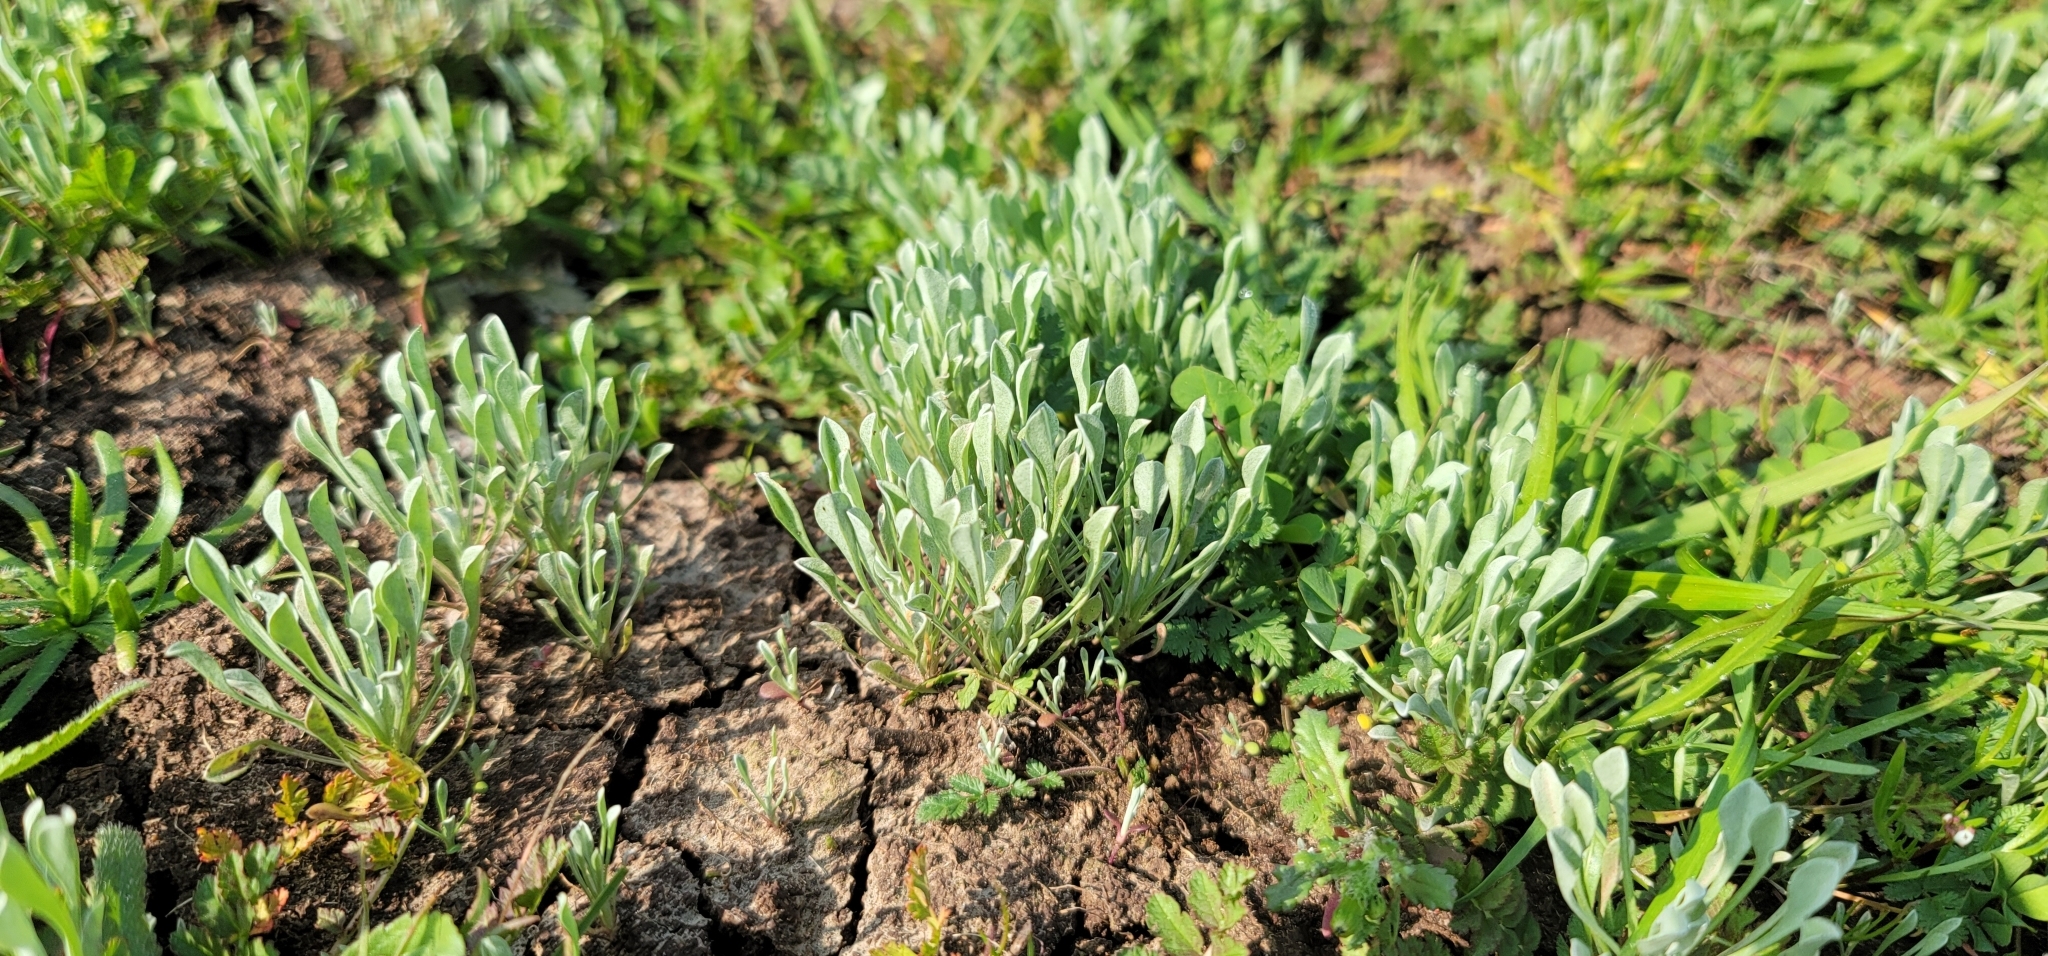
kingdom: Plantae
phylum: Tracheophyta
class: Magnoliopsida
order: Asterales
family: Asteraceae
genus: Hesperevax
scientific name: Hesperevax caulescens
